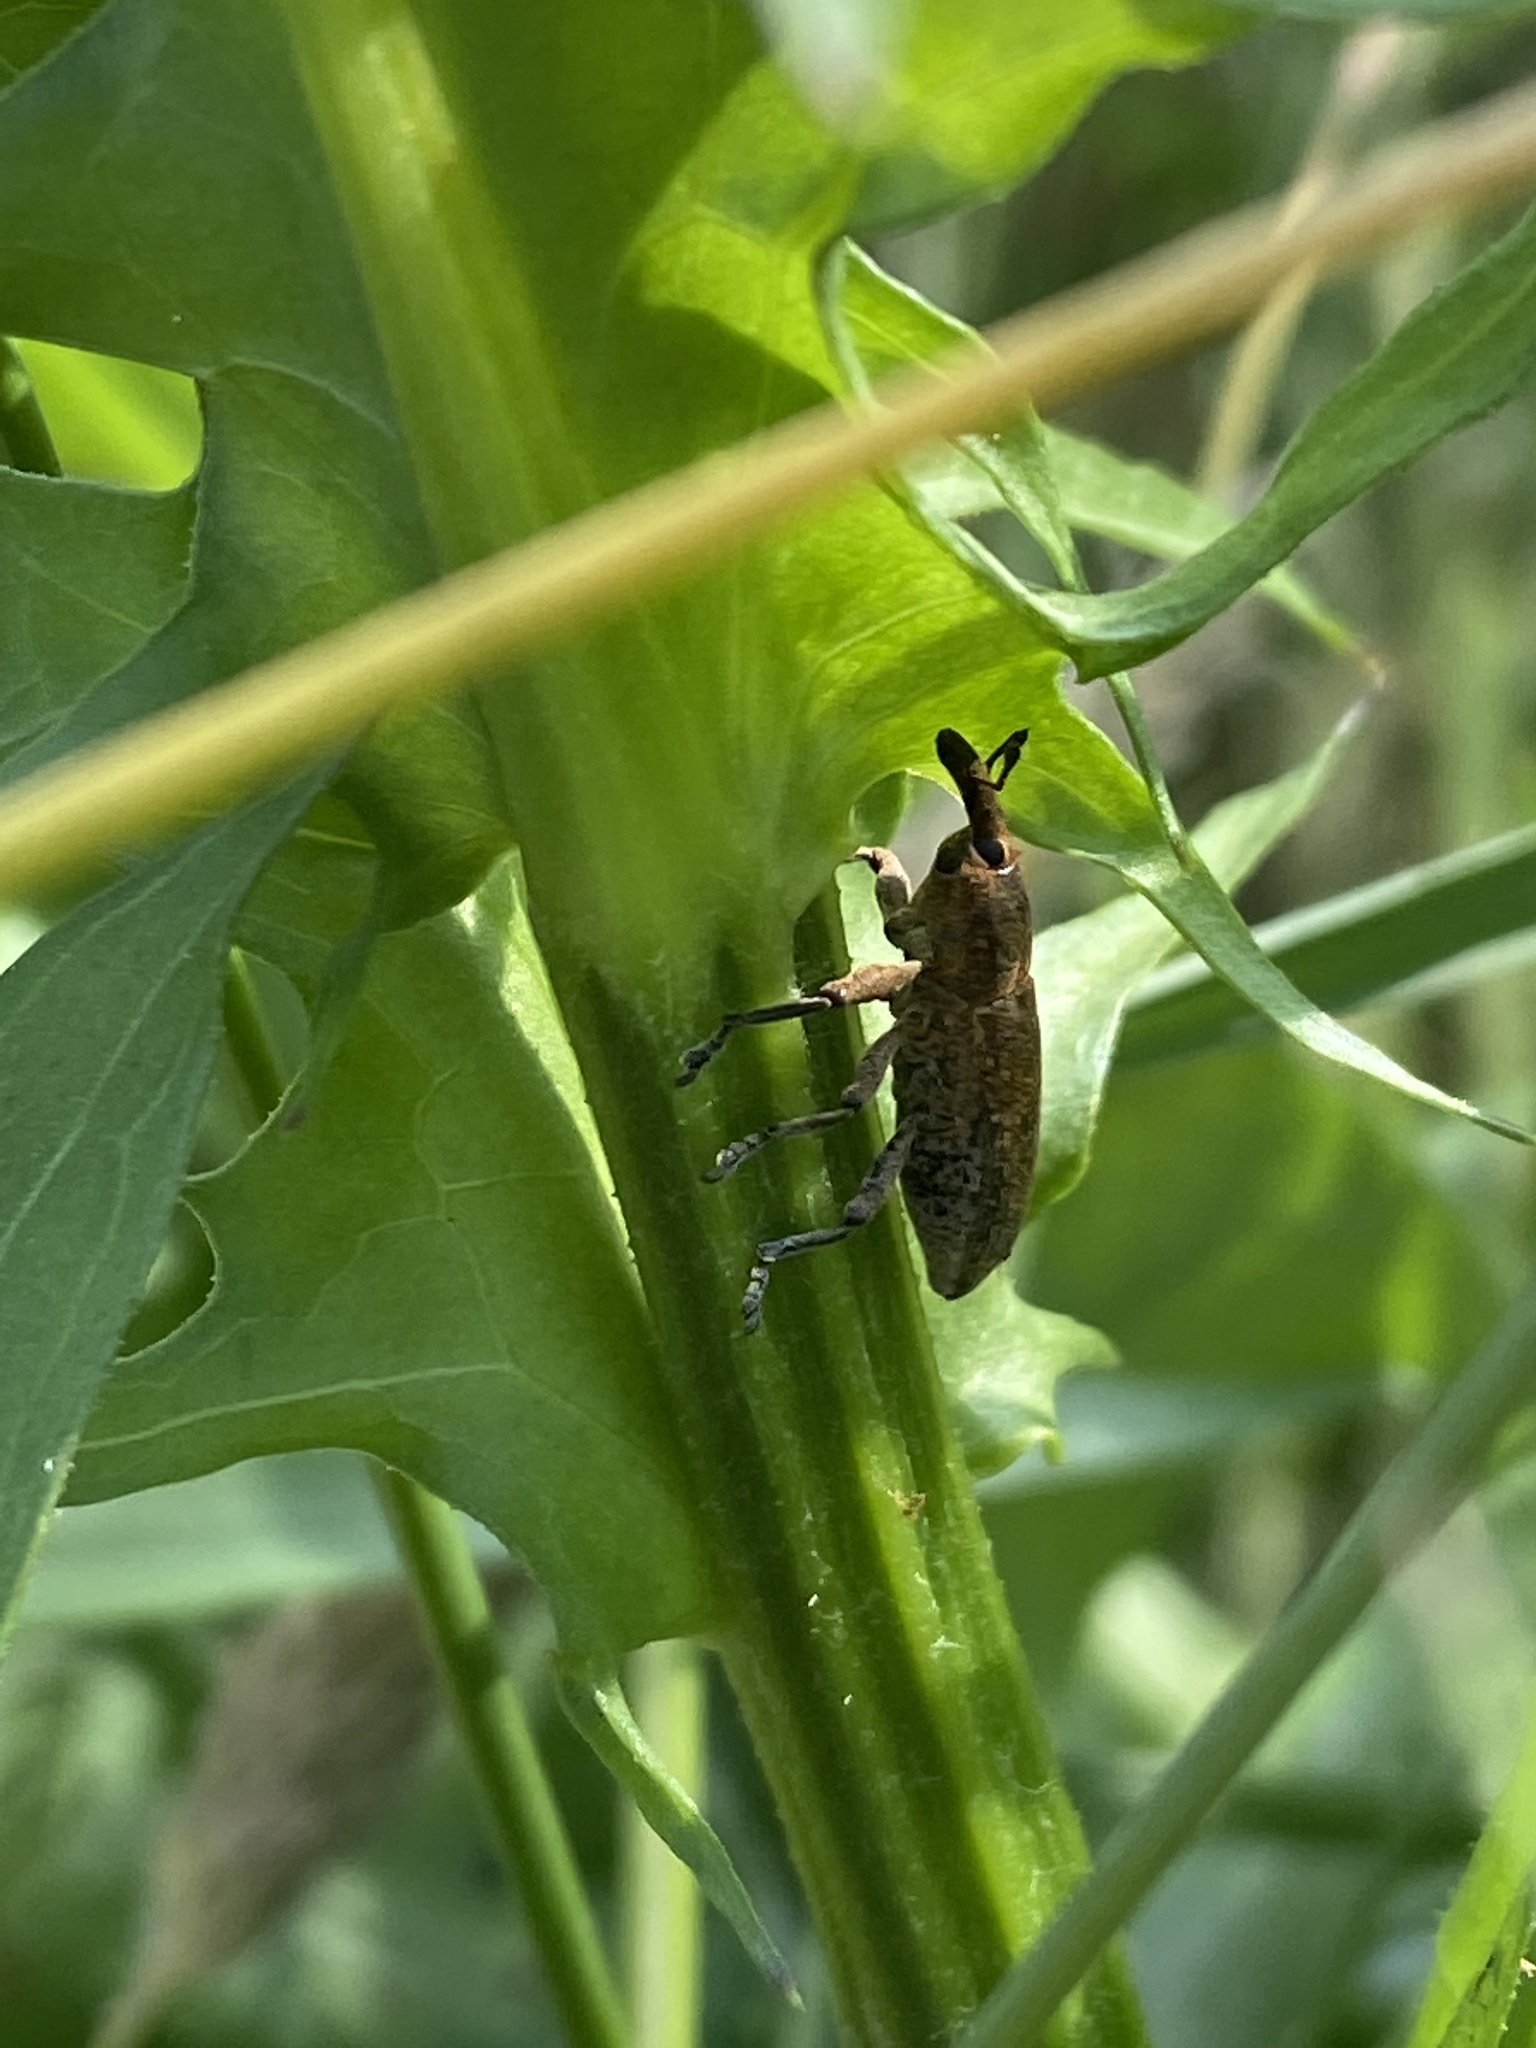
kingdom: Animalia
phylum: Arthropoda
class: Insecta
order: Coleoptera
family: Curculionidae
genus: Lixus
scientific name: Lixus punctiventris
